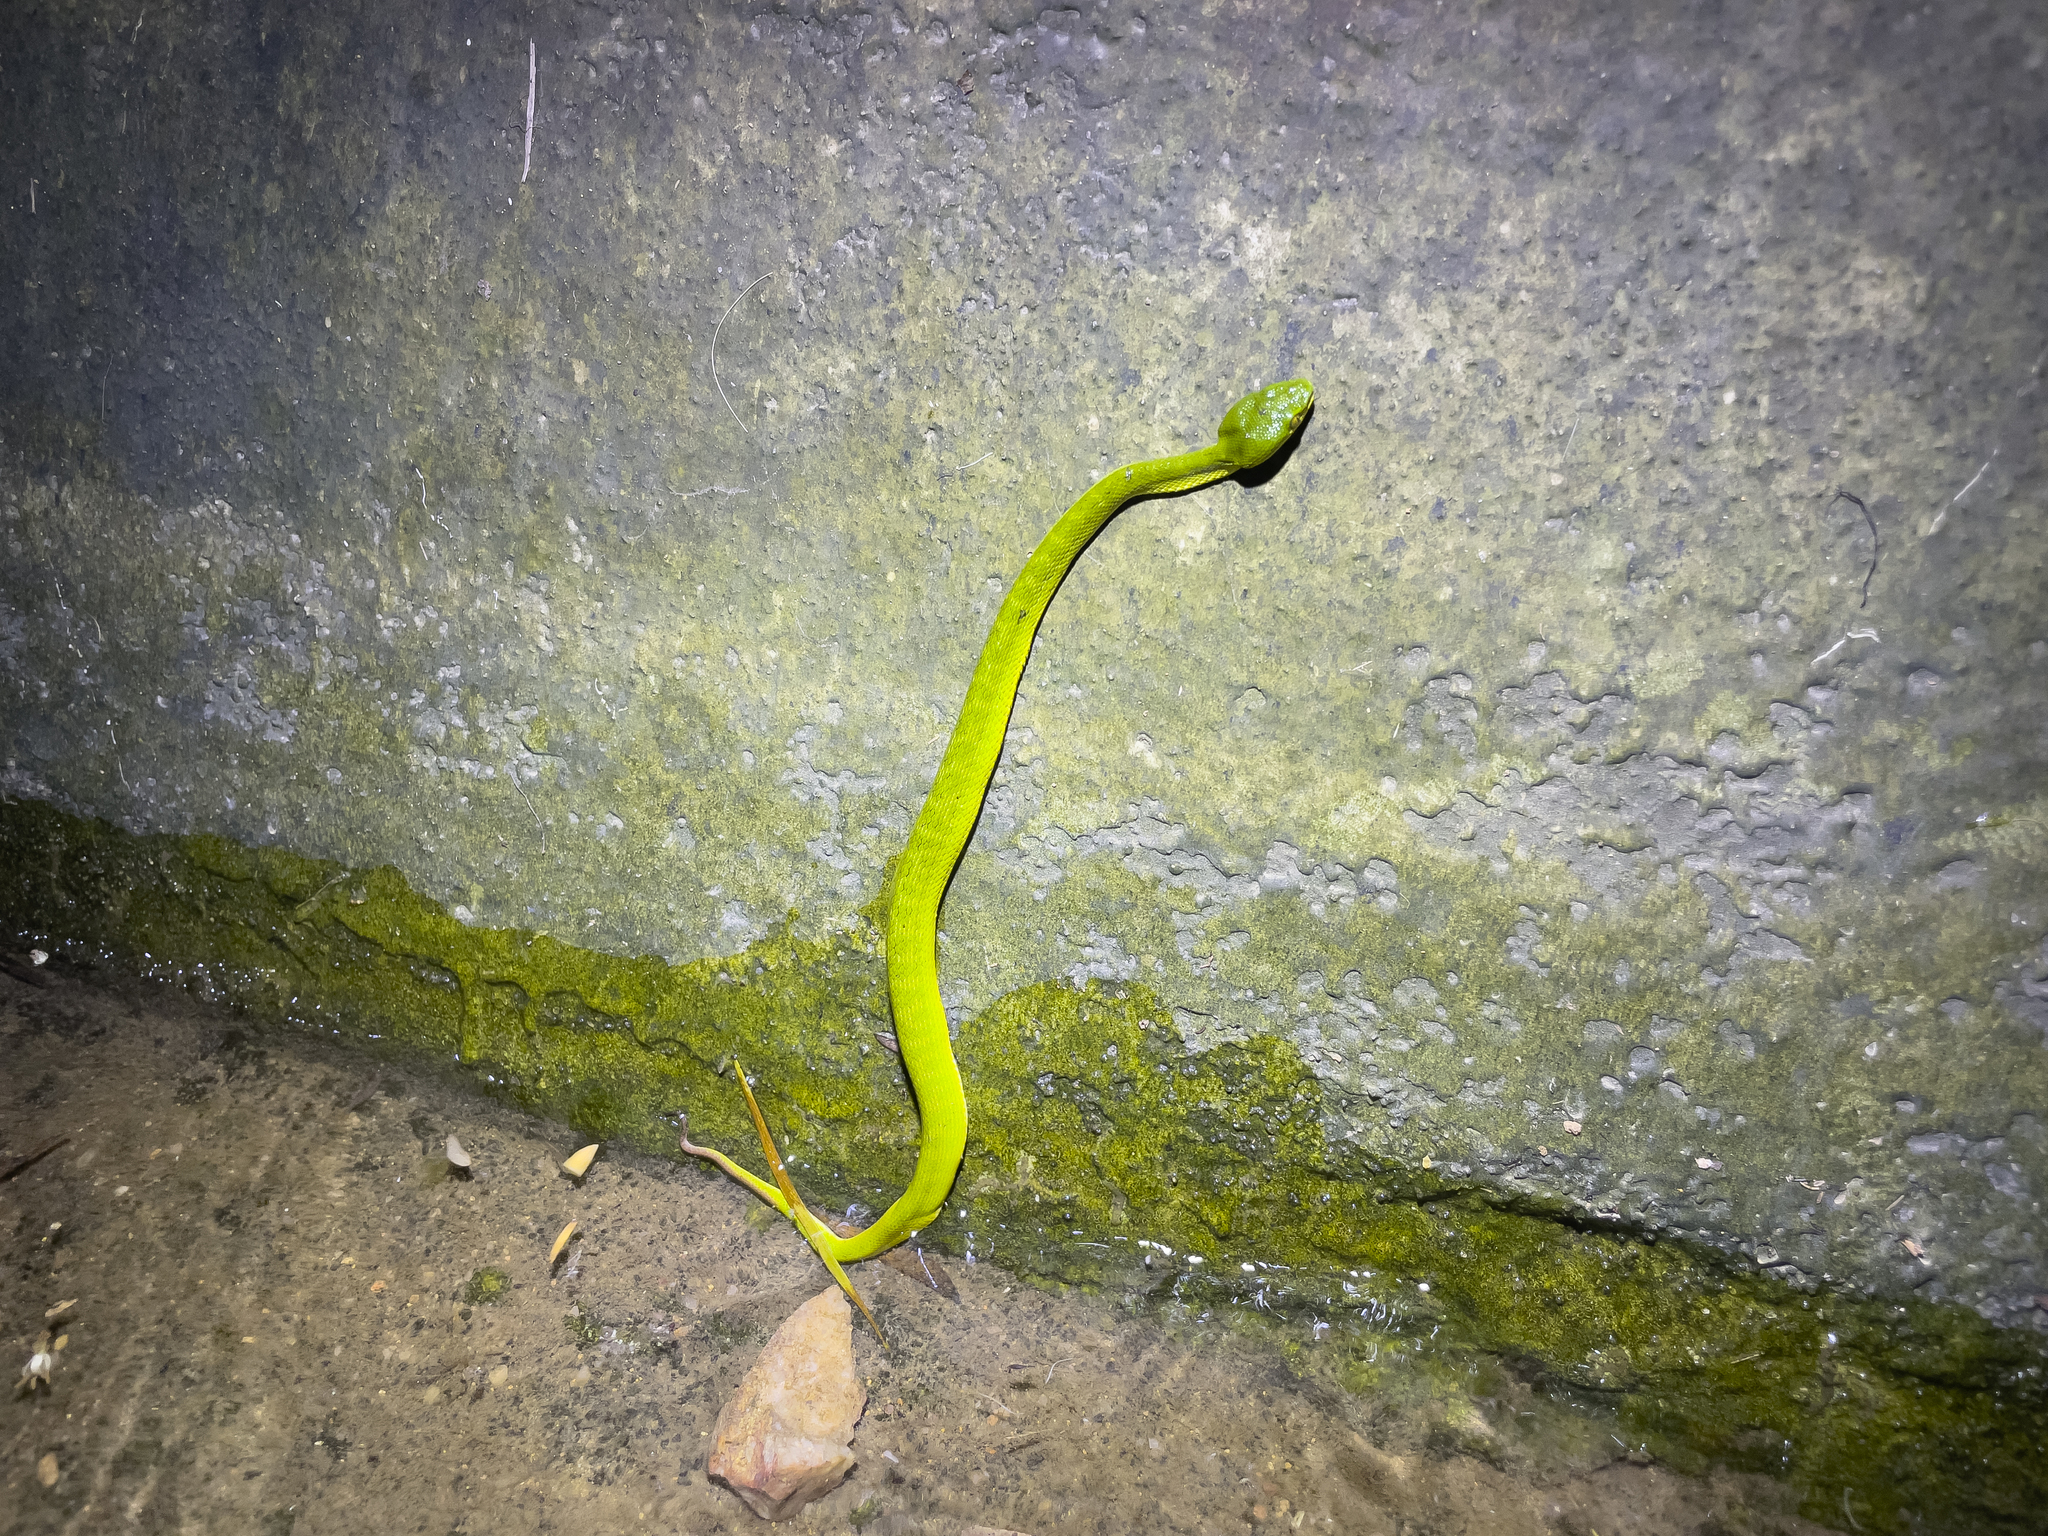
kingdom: Animalia
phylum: Chordata
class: Squamata
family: Viperidae
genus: Trimeresurus
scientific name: Trimeresurus albolabris
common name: White-lipped pitviper
